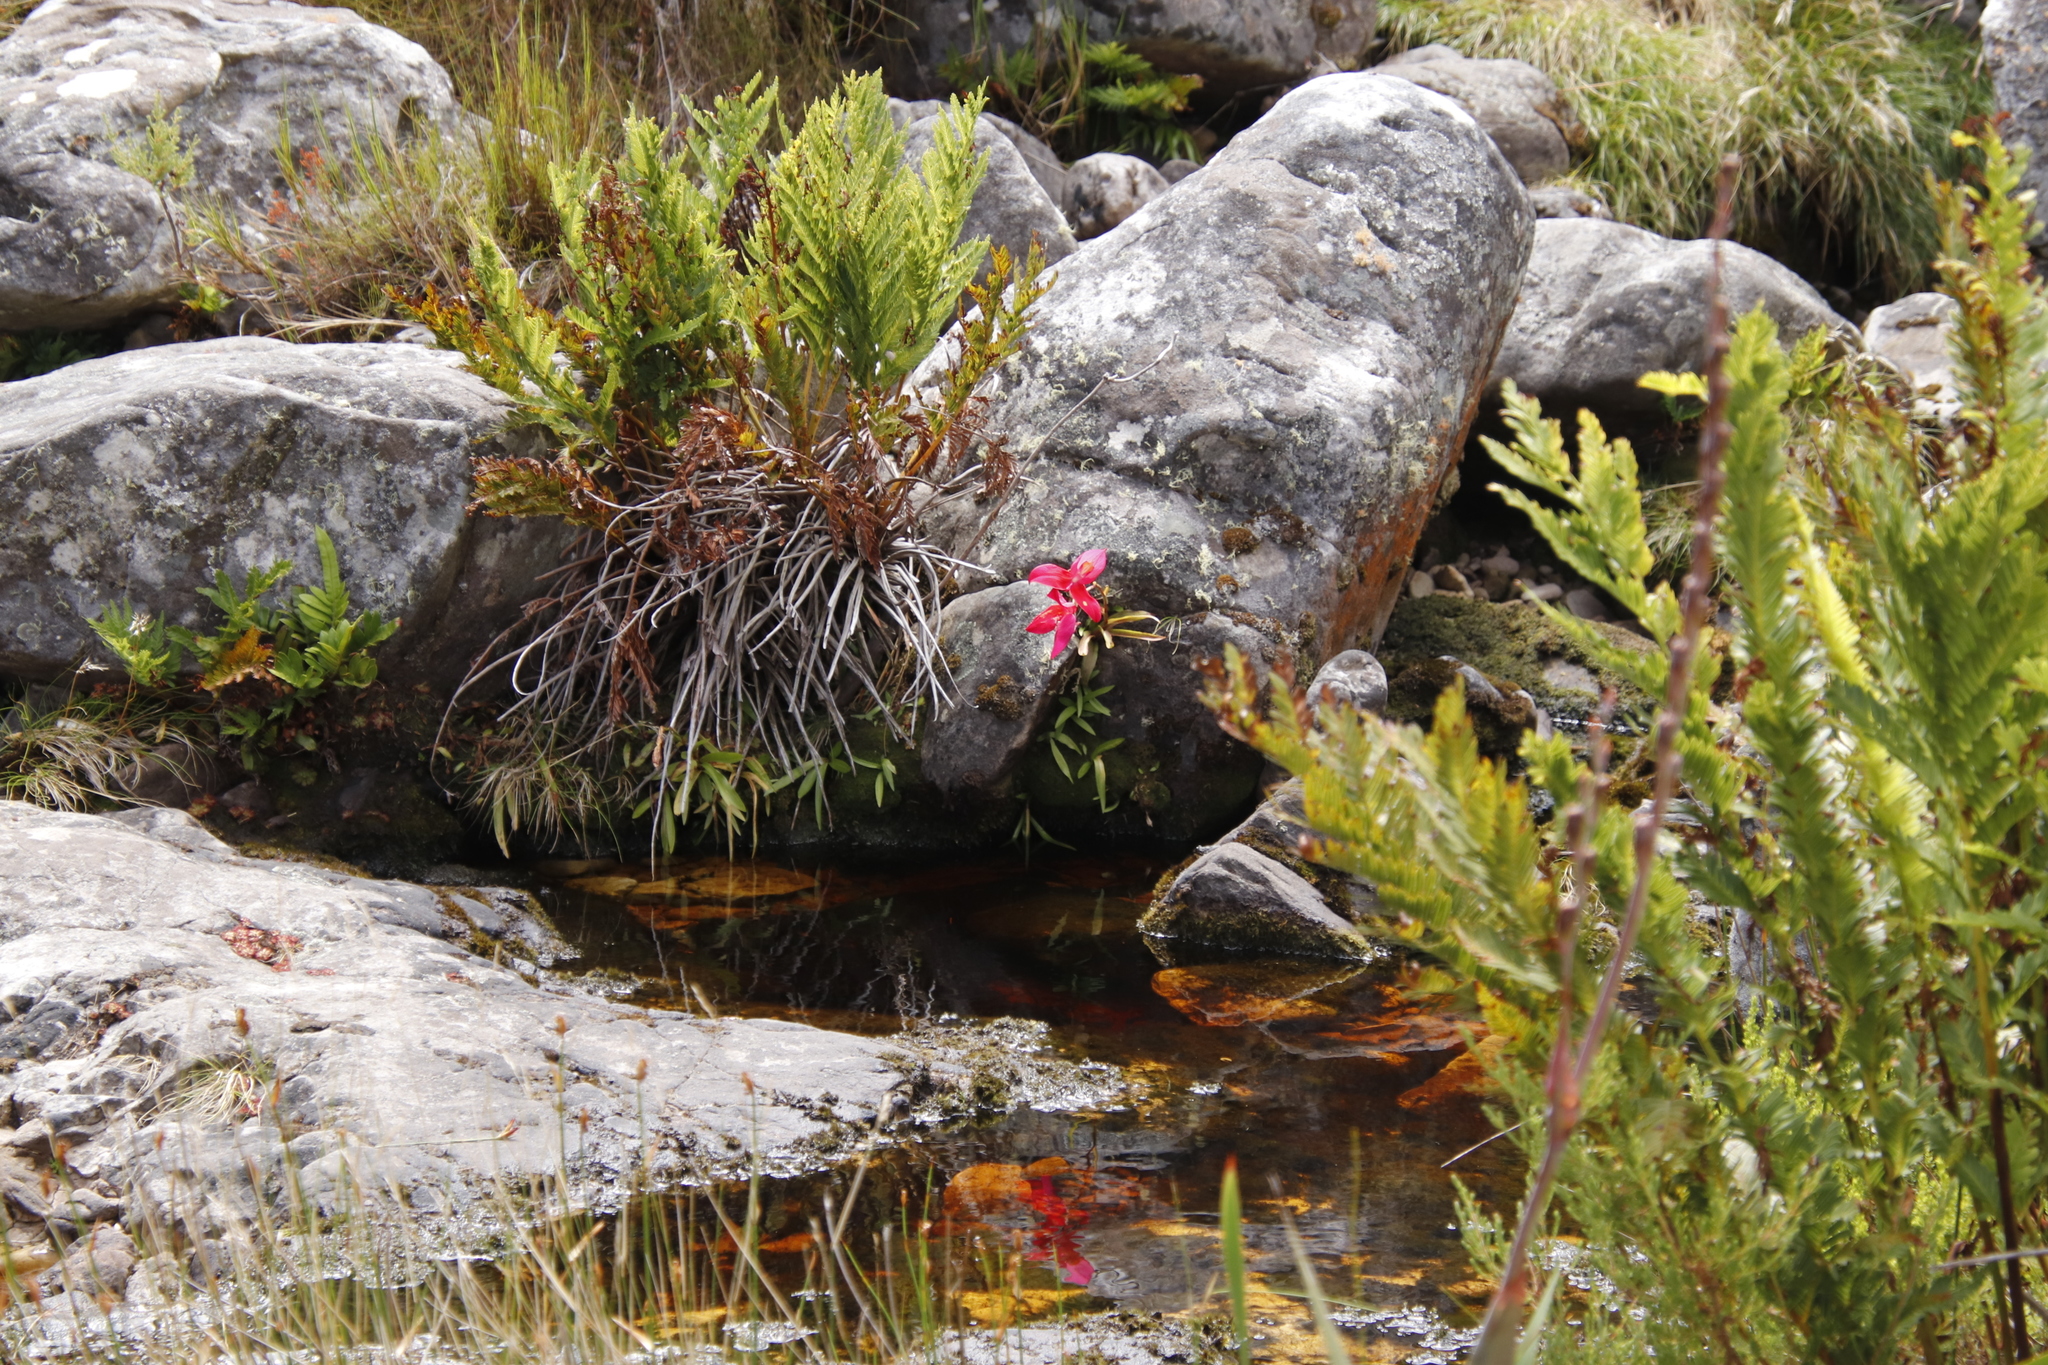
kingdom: Plantae
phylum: Tracheophyta
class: Liliopsida
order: Asparagales
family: Orchidaceae
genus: Disa
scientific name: Disa uniflora
